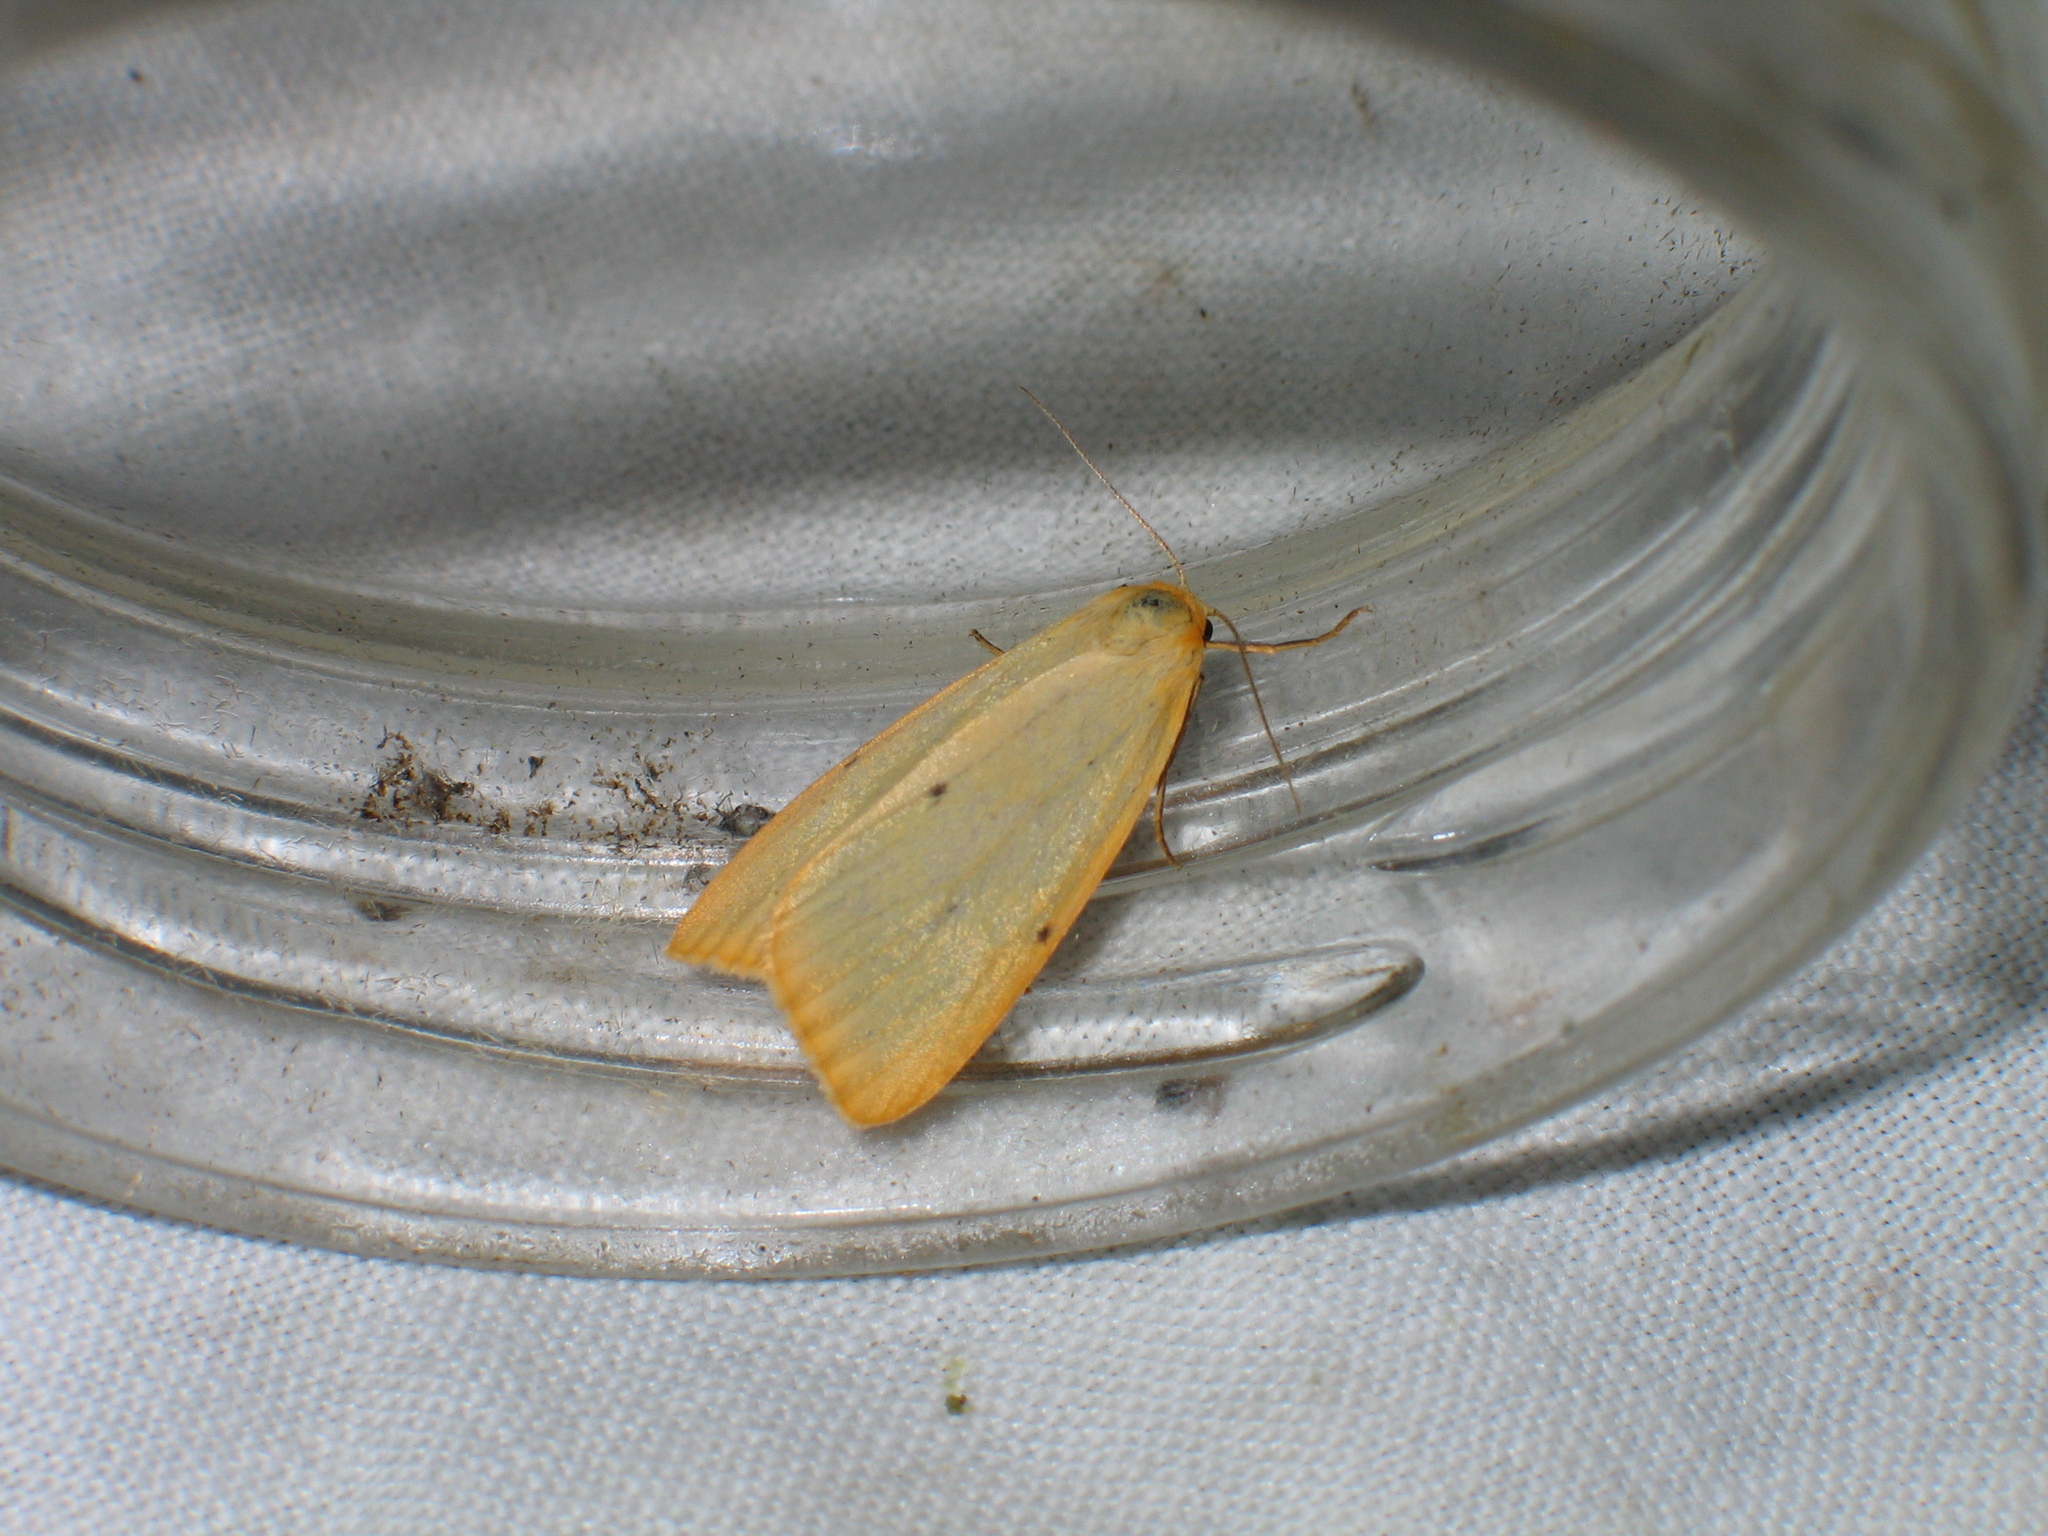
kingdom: Animalia
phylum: Arthropoda
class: Insecta
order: Lepidoptera
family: Erebidae
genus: Cybosia
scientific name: Cybosia mesomella
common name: Four-dotted footman
